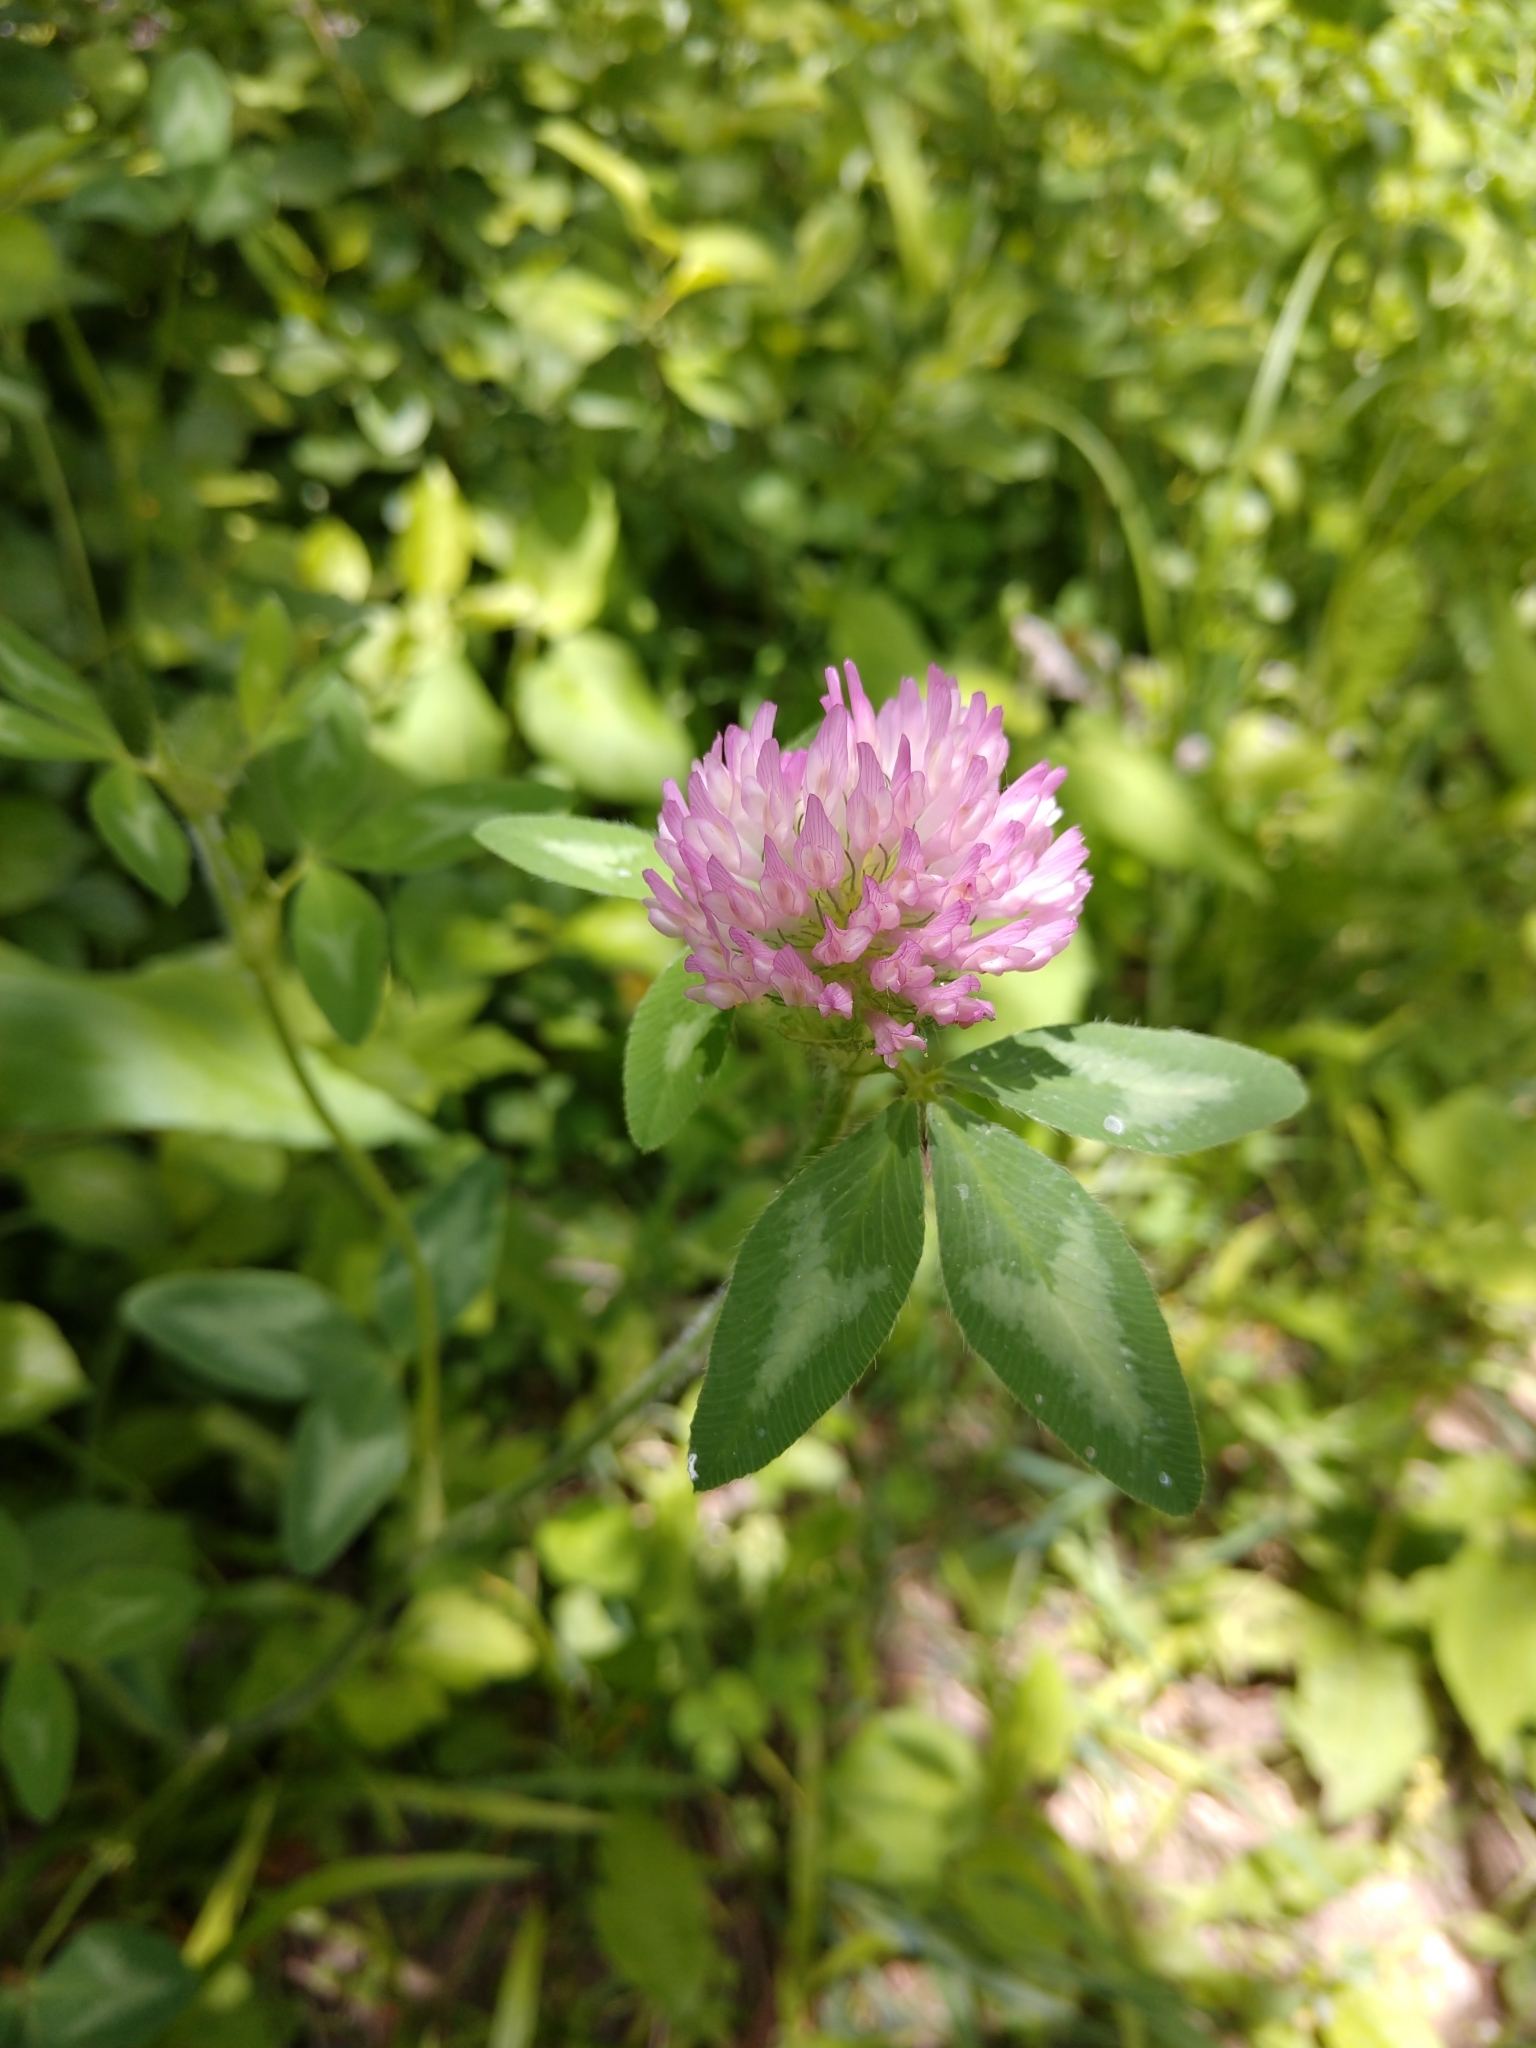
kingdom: Plantae
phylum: Tracheophyta
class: Magnoliopsida
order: Fabales
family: Fabaceae
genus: Trifolium
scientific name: Trifolium pratense
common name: Red clover
